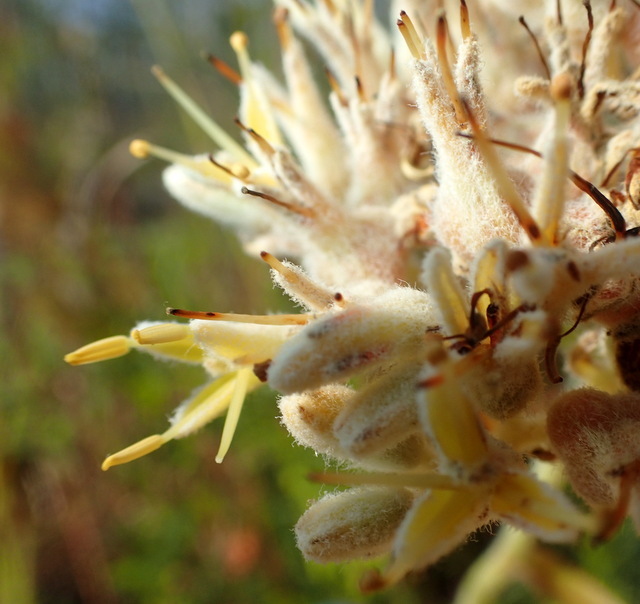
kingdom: Plantae
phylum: Tracheophyta
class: Liliopsida
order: Commelinales
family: Haemodoraceae
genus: Lachnanthes
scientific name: Lachnanthes caroliana
